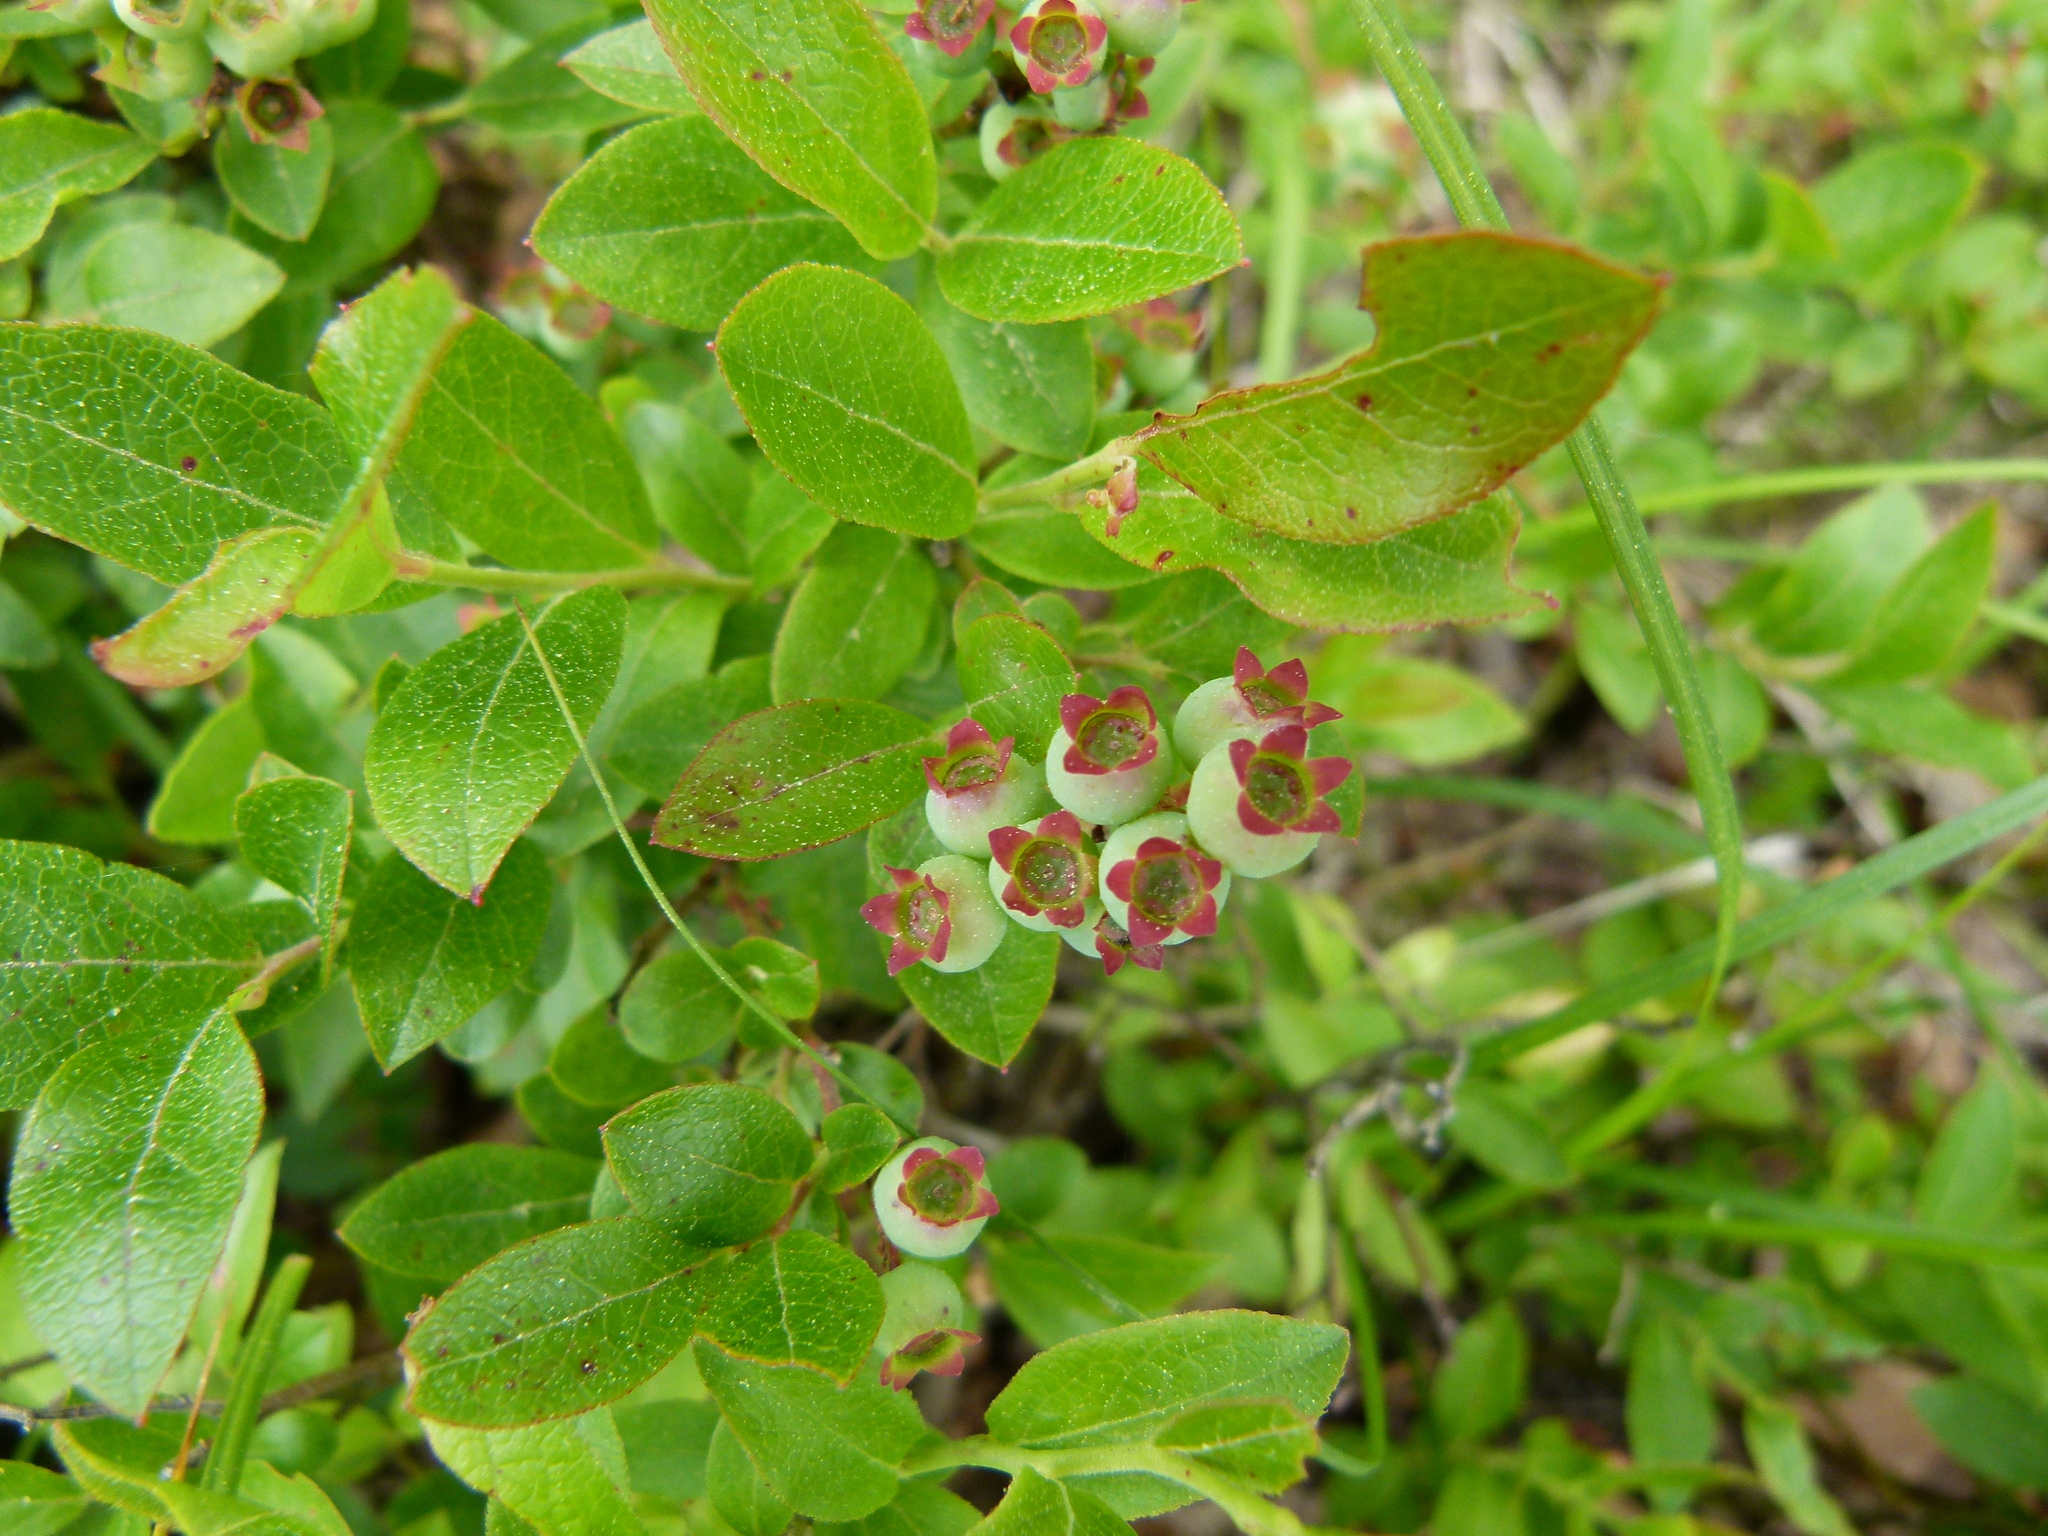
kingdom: Plantae
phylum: Tracheophyta
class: Magnoliopsida
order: Ericales
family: Ericaceae
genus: Vaccinium
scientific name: Vaccinium angustifolium
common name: Early lowbush blueberry
